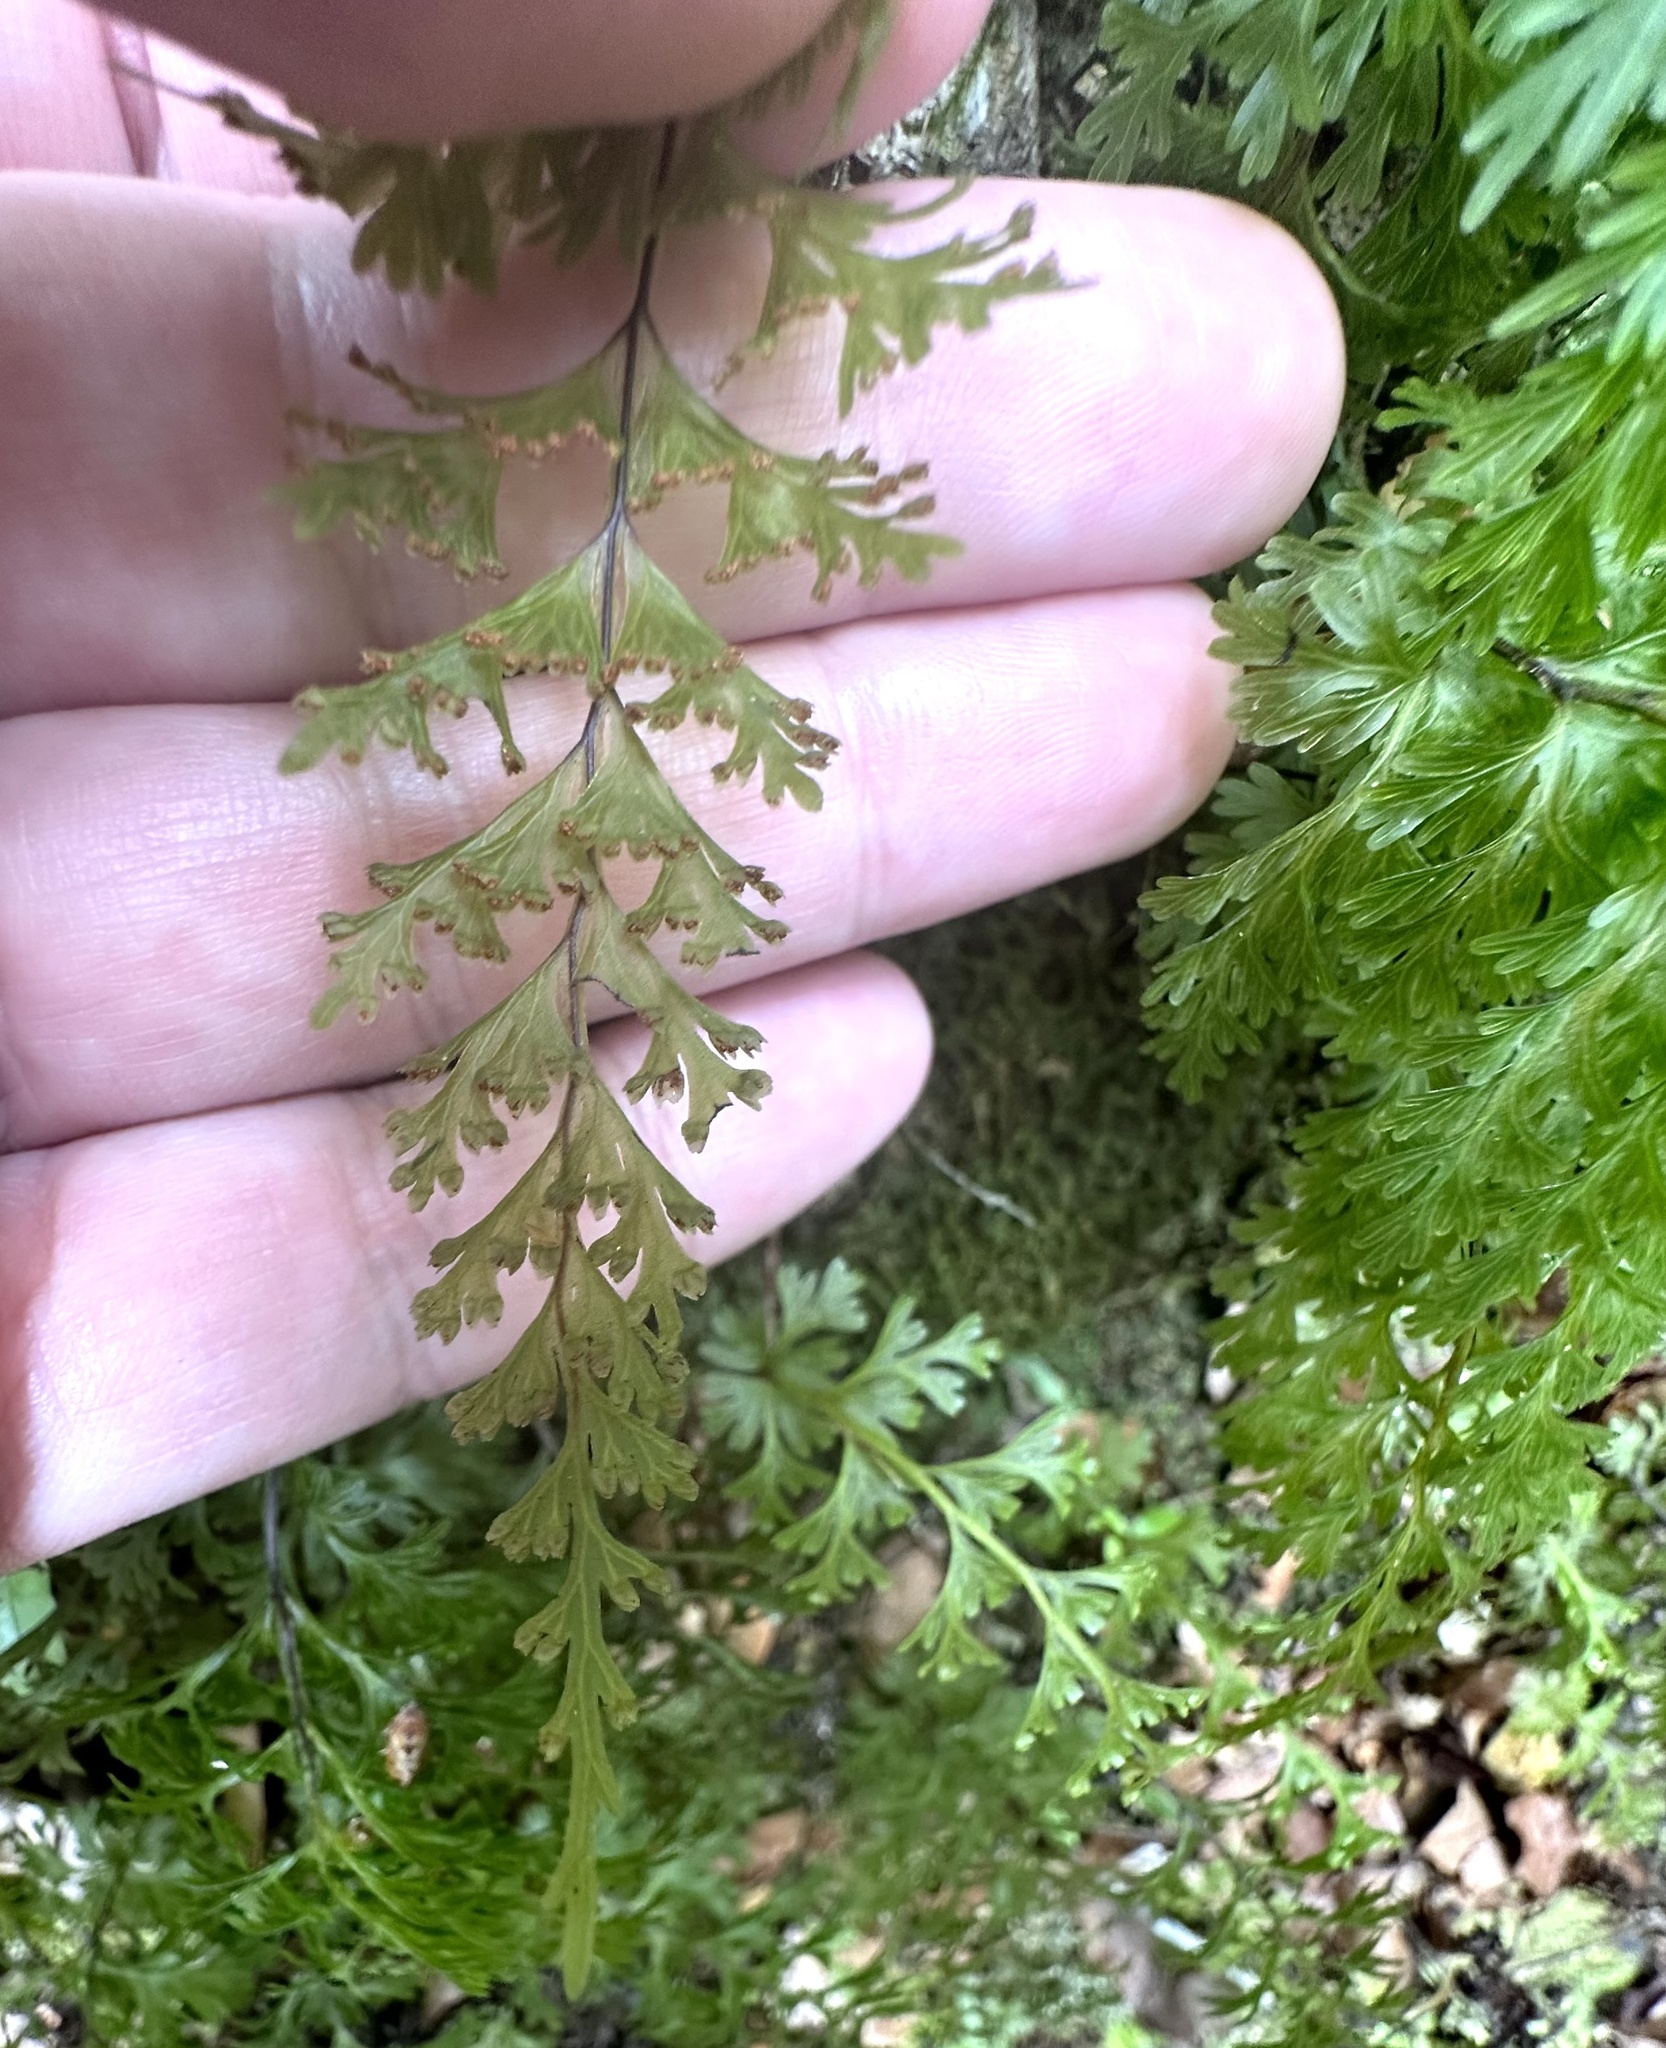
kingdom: Plantae
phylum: Tracheophyta
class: Polypodiopsida
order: Hymenophyllales
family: Hymenophyllaceae
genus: Hymenophyllum
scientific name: Hymenophyllum demissum
